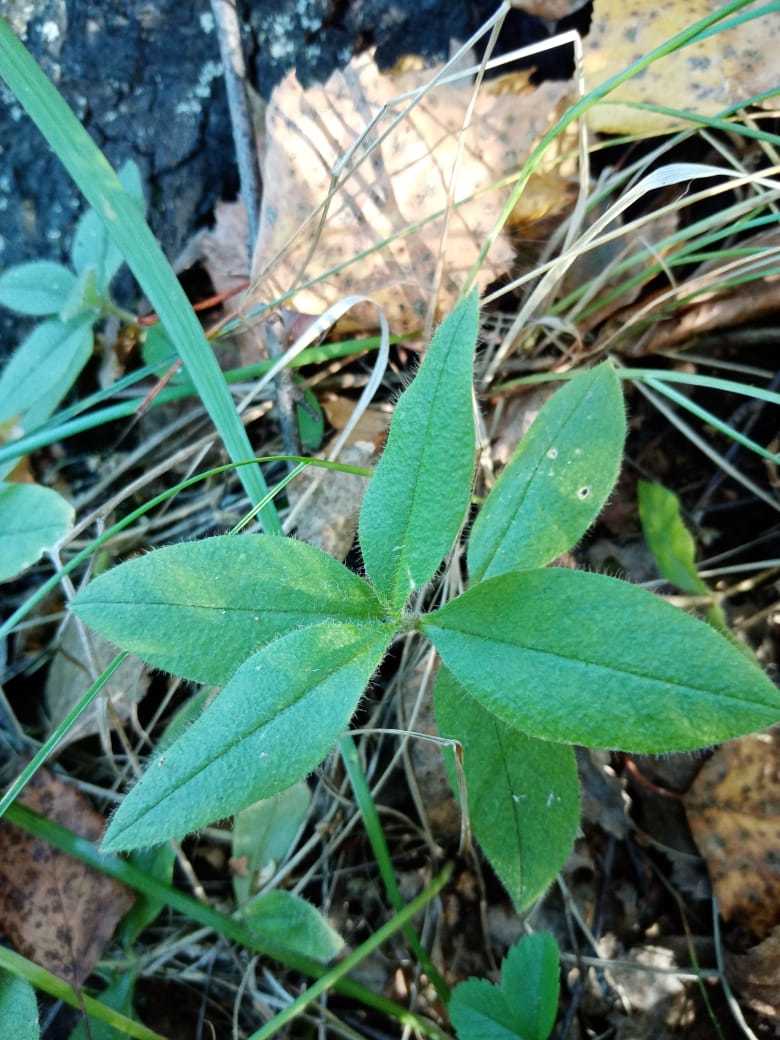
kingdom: Plantae
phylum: Tracheophyta
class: Magnoliopsida
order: Caryophyllales
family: Caryophyllaceae
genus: Cerastium
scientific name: Cerastium pauciflorum
